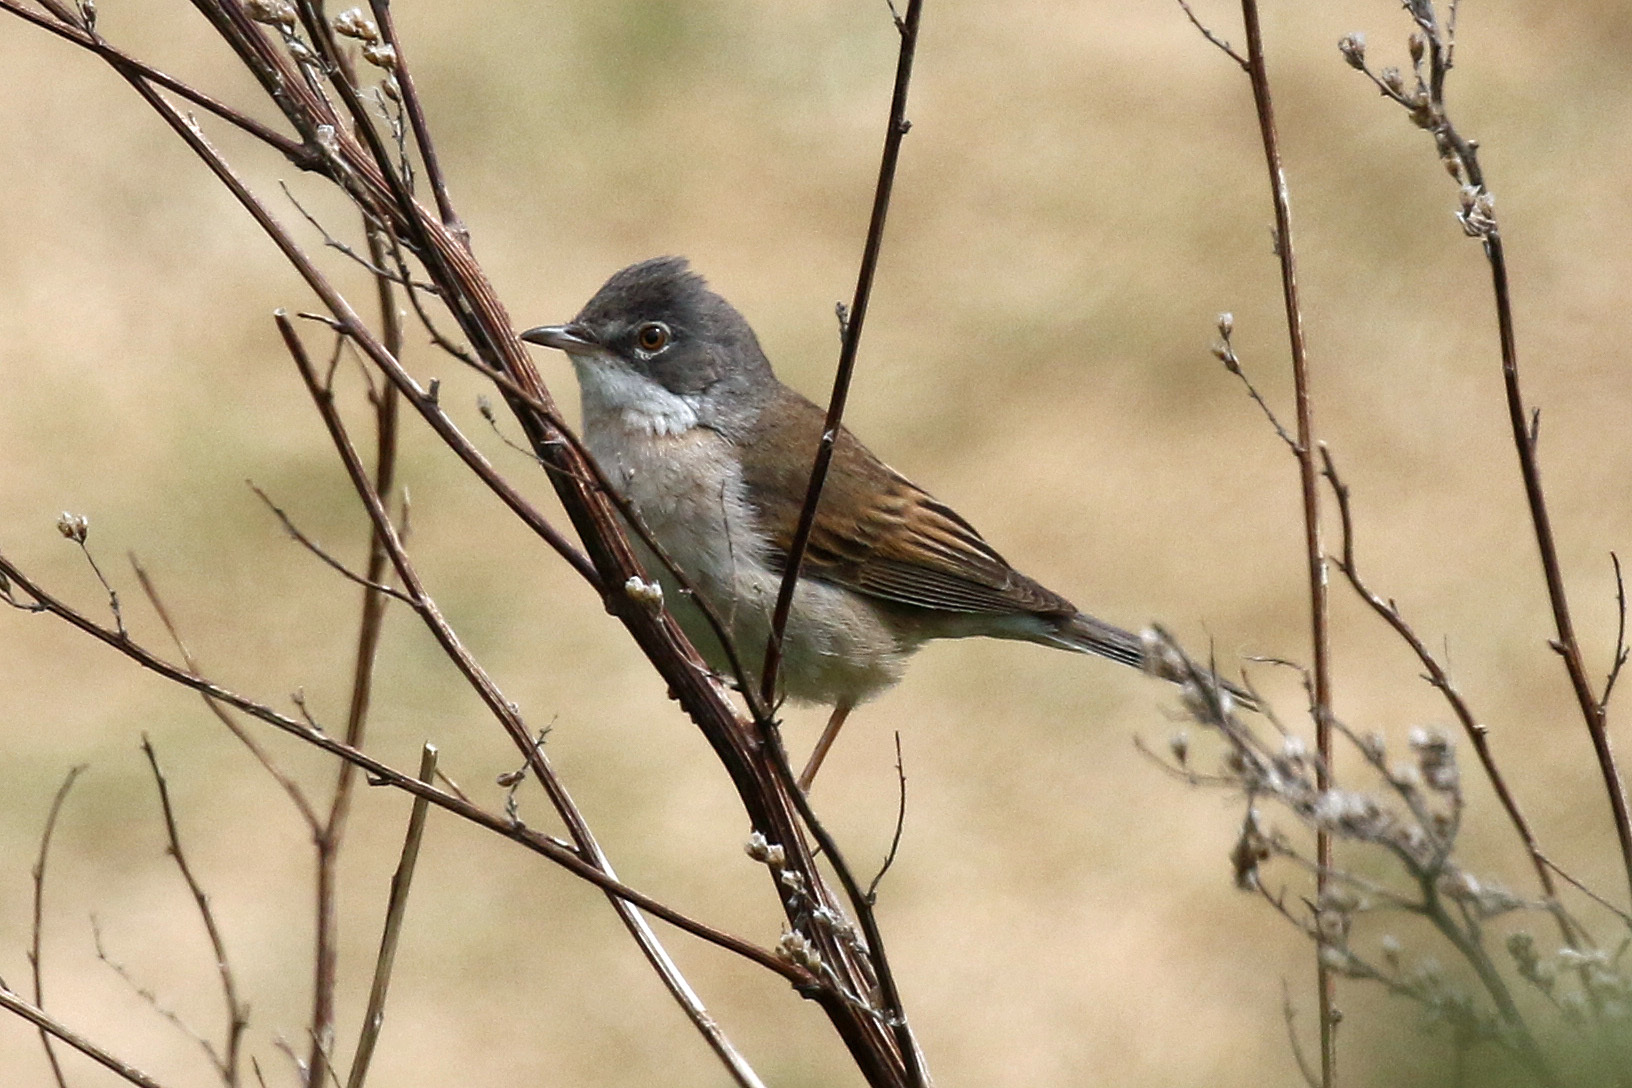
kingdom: Animalia
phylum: Chordata
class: Aves
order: Passeriformes
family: Sylviidae
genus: Sylvia
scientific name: Sylvia communis
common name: Common whitethroat
